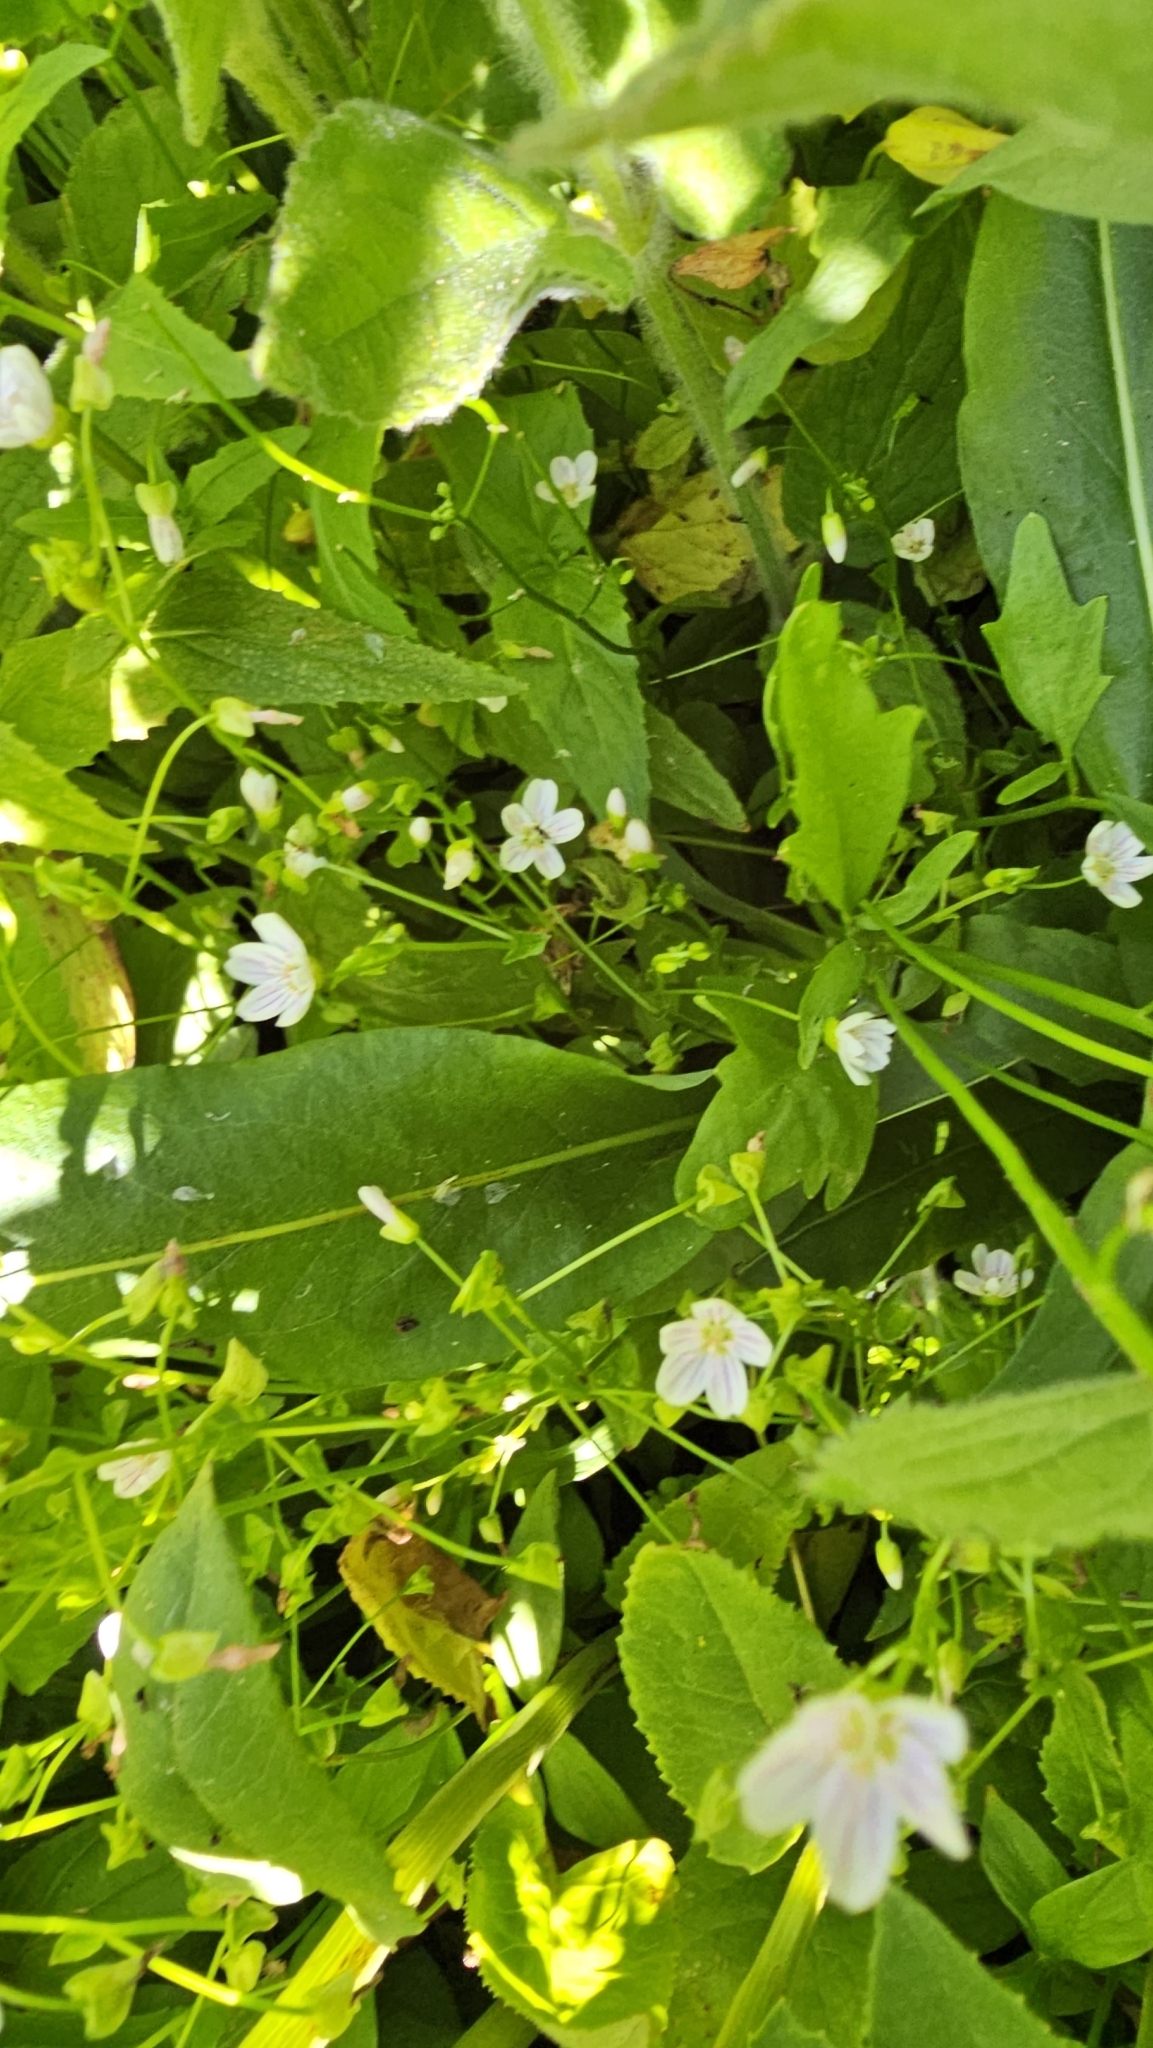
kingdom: Plantae
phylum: Tracheophyta
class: Magnoliopsida
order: Caryophyllales
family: Montiaceae
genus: Claytonia
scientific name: Claytonia palustris
